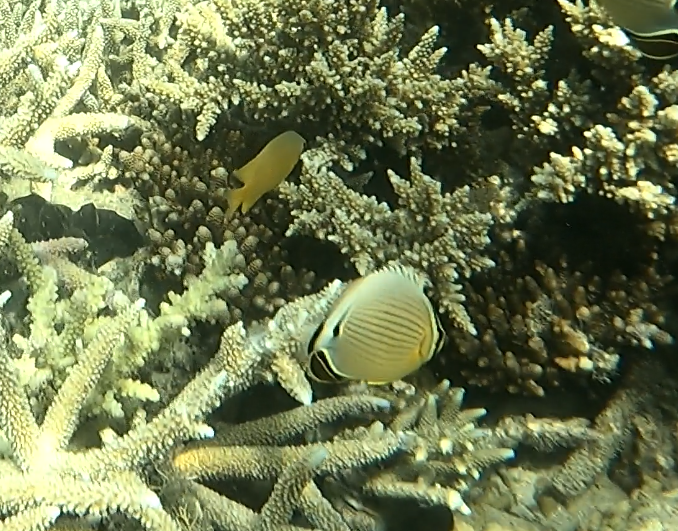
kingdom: Animalia
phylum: Chordata
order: Perciformes
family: Chaetodontidae
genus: Chaetodon
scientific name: Chaetodon lunulatus
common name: Redfin butterflyfish
